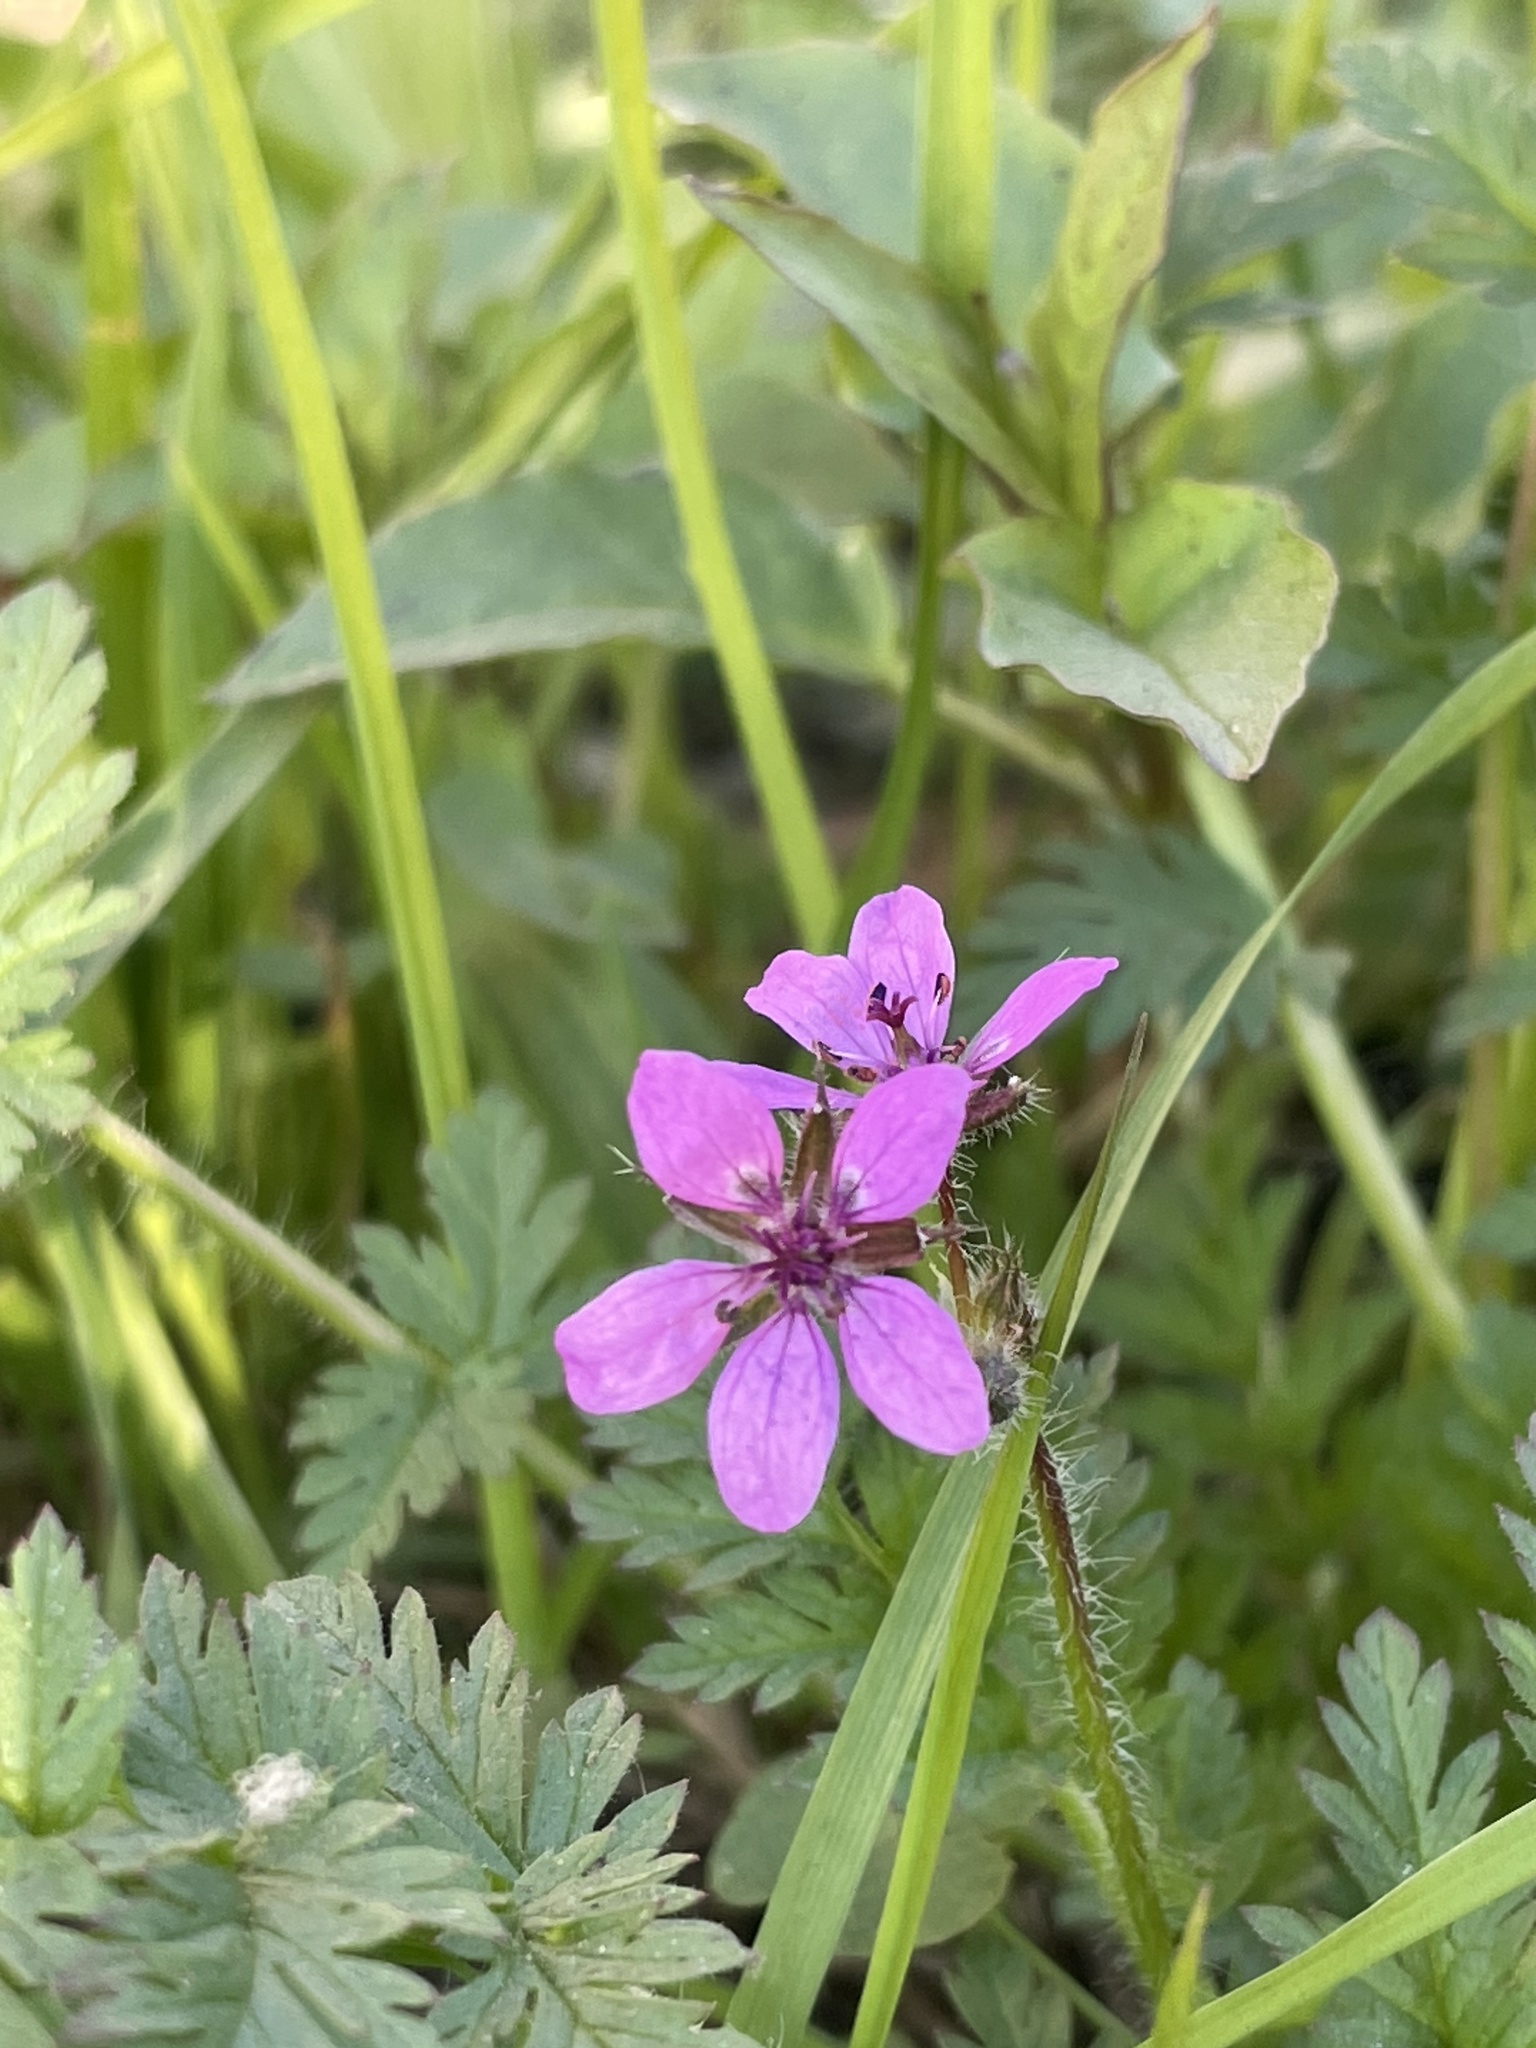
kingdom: Plantae
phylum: Tracheophyta
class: Magnoliopsida
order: Geraniales
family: Geraniaceae
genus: Erodium
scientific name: Erodium cicutarium
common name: Common stork's-bill
